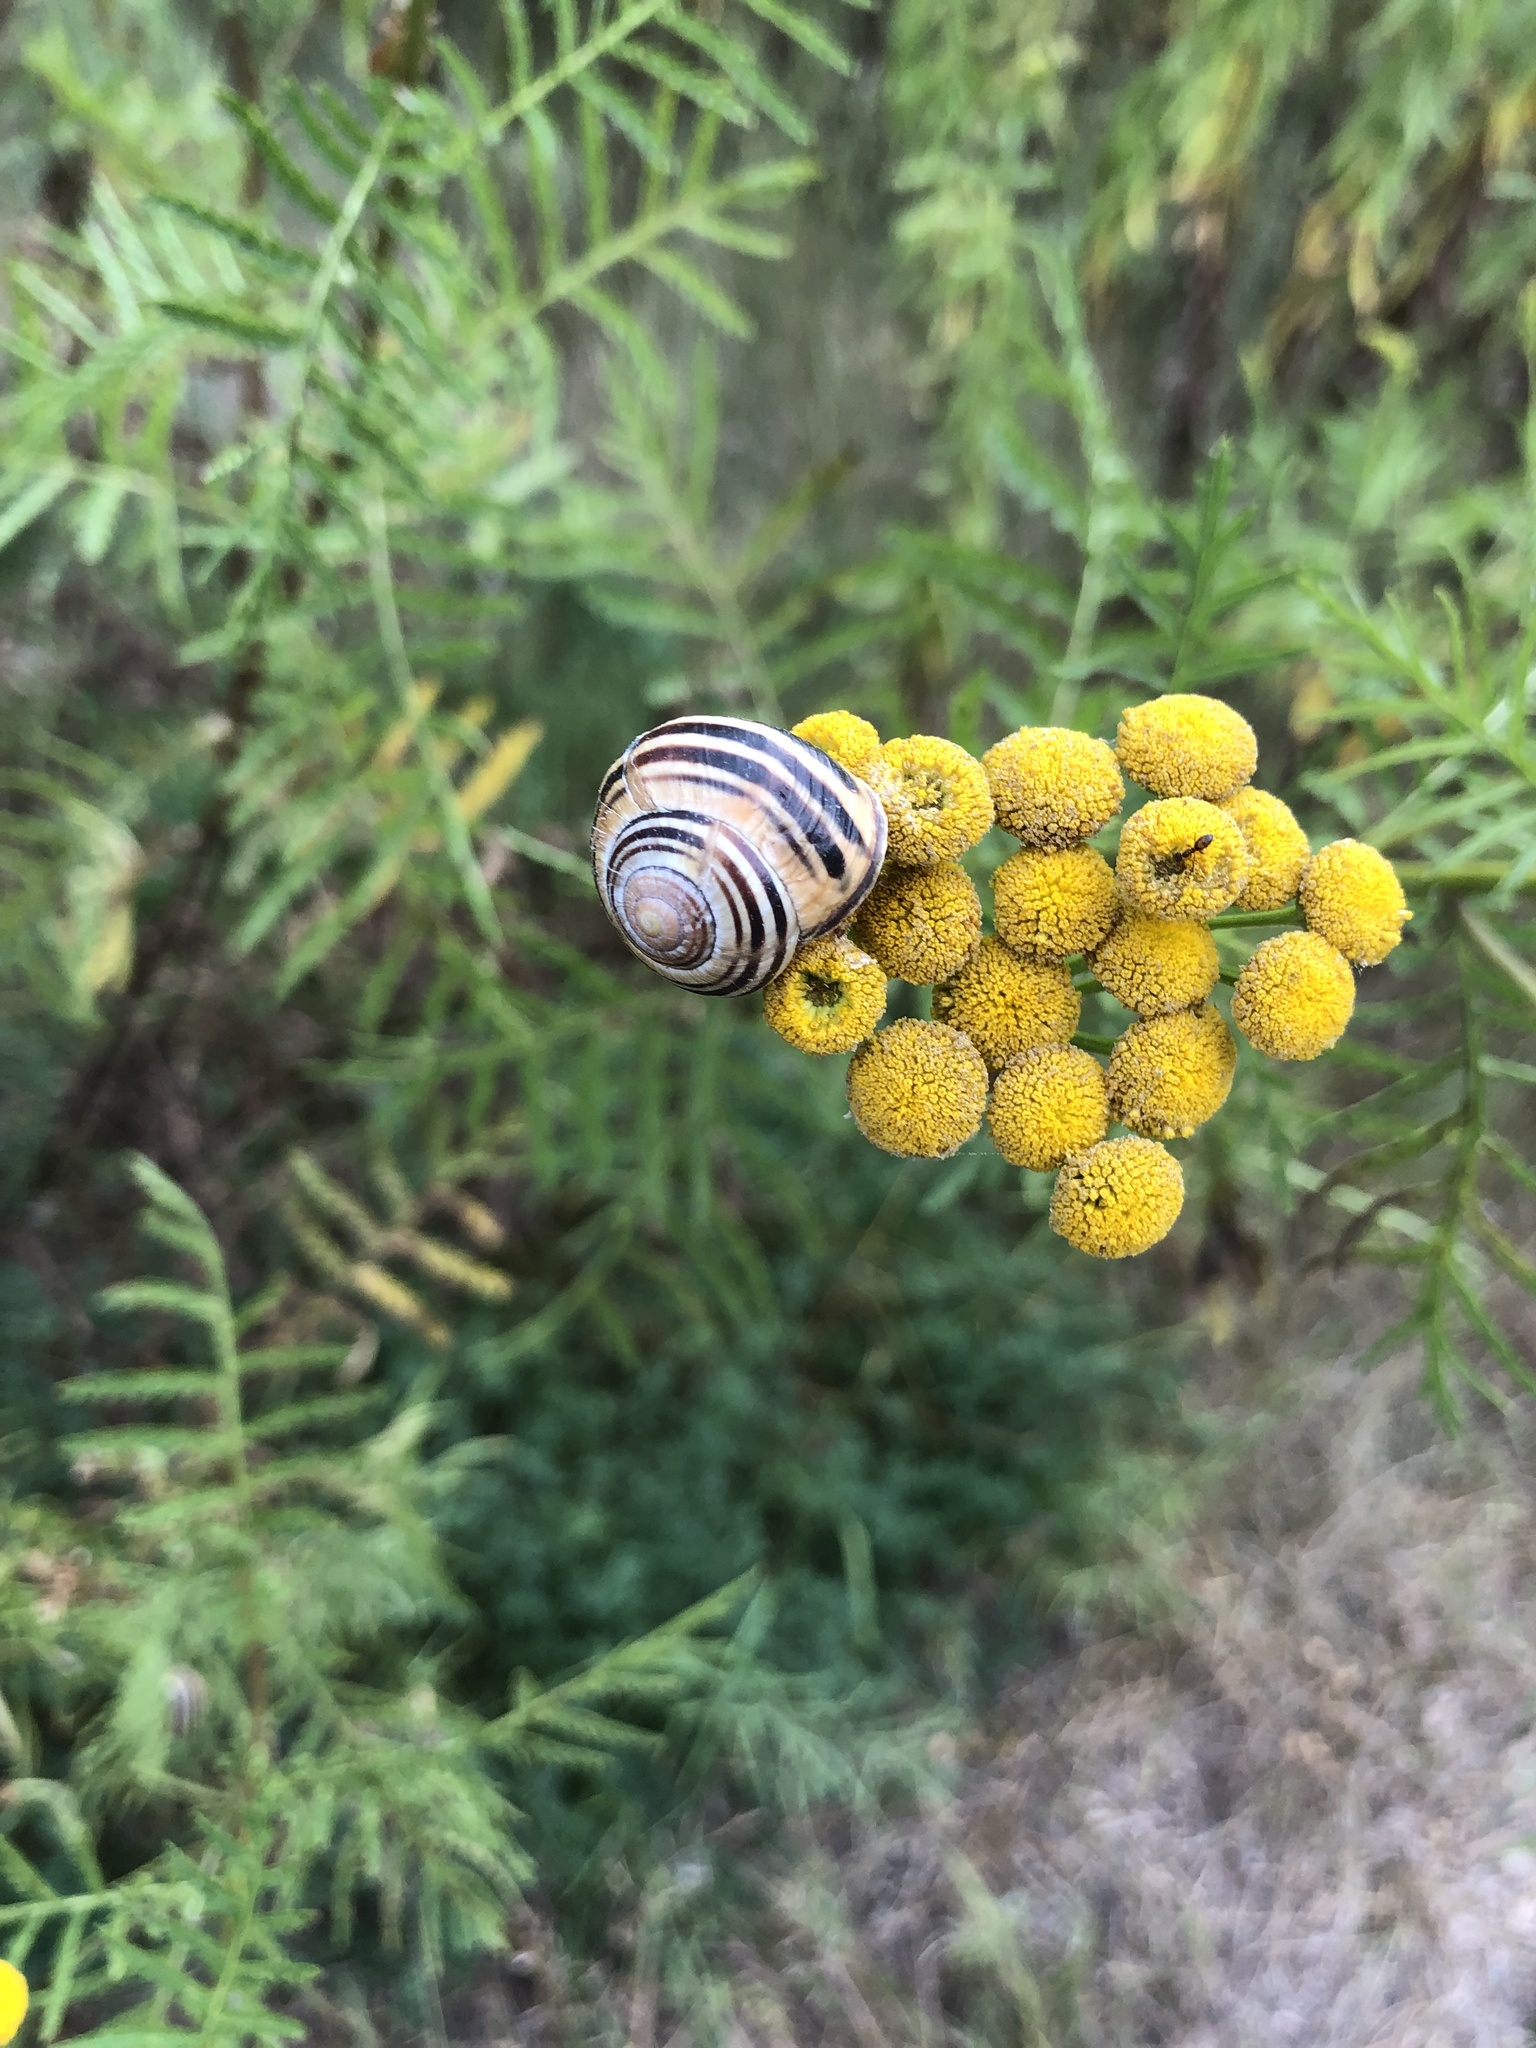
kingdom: Animalia
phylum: Mollusca
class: Gastropoda
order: Stylommatophora
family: Helicidae
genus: Cepaea
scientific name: Cepaea nemoralis
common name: Grovesnail
